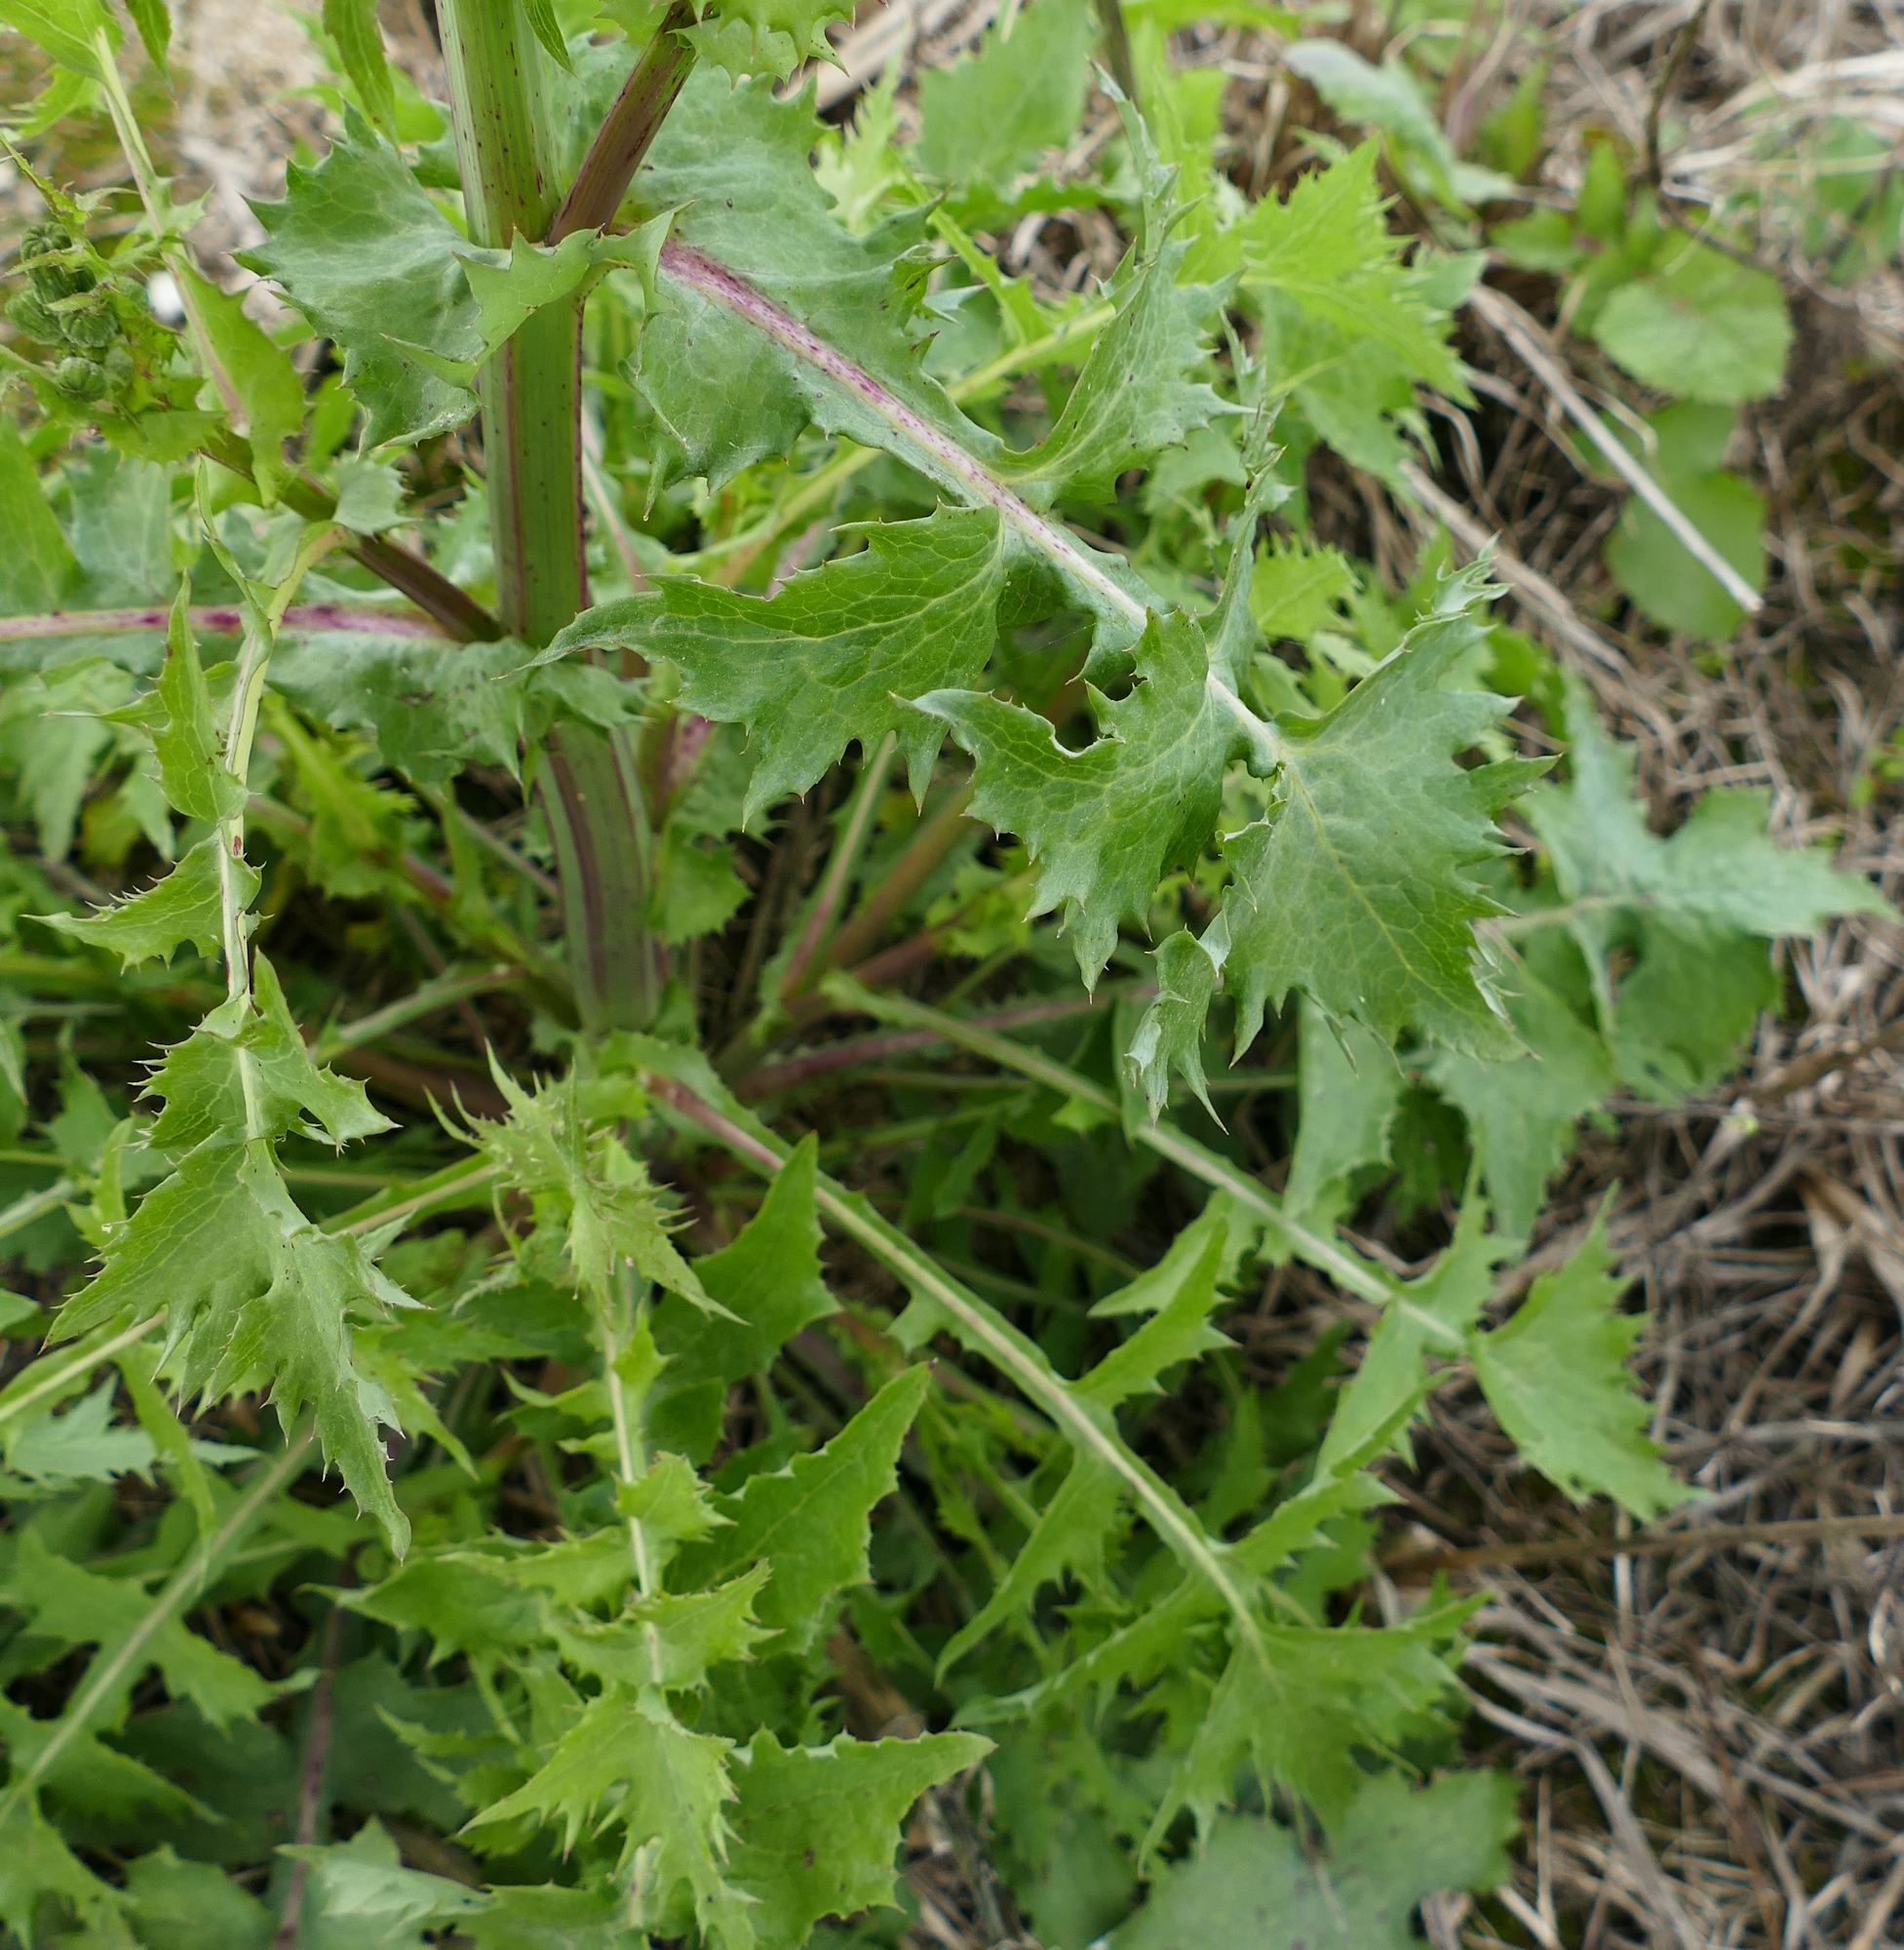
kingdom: Plantae
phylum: Tracheophyta
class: Magnoliopsida
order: Asterales
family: Asteraceae
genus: Sonchus
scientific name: Sonchus oleraceus
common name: Common sowthistle
